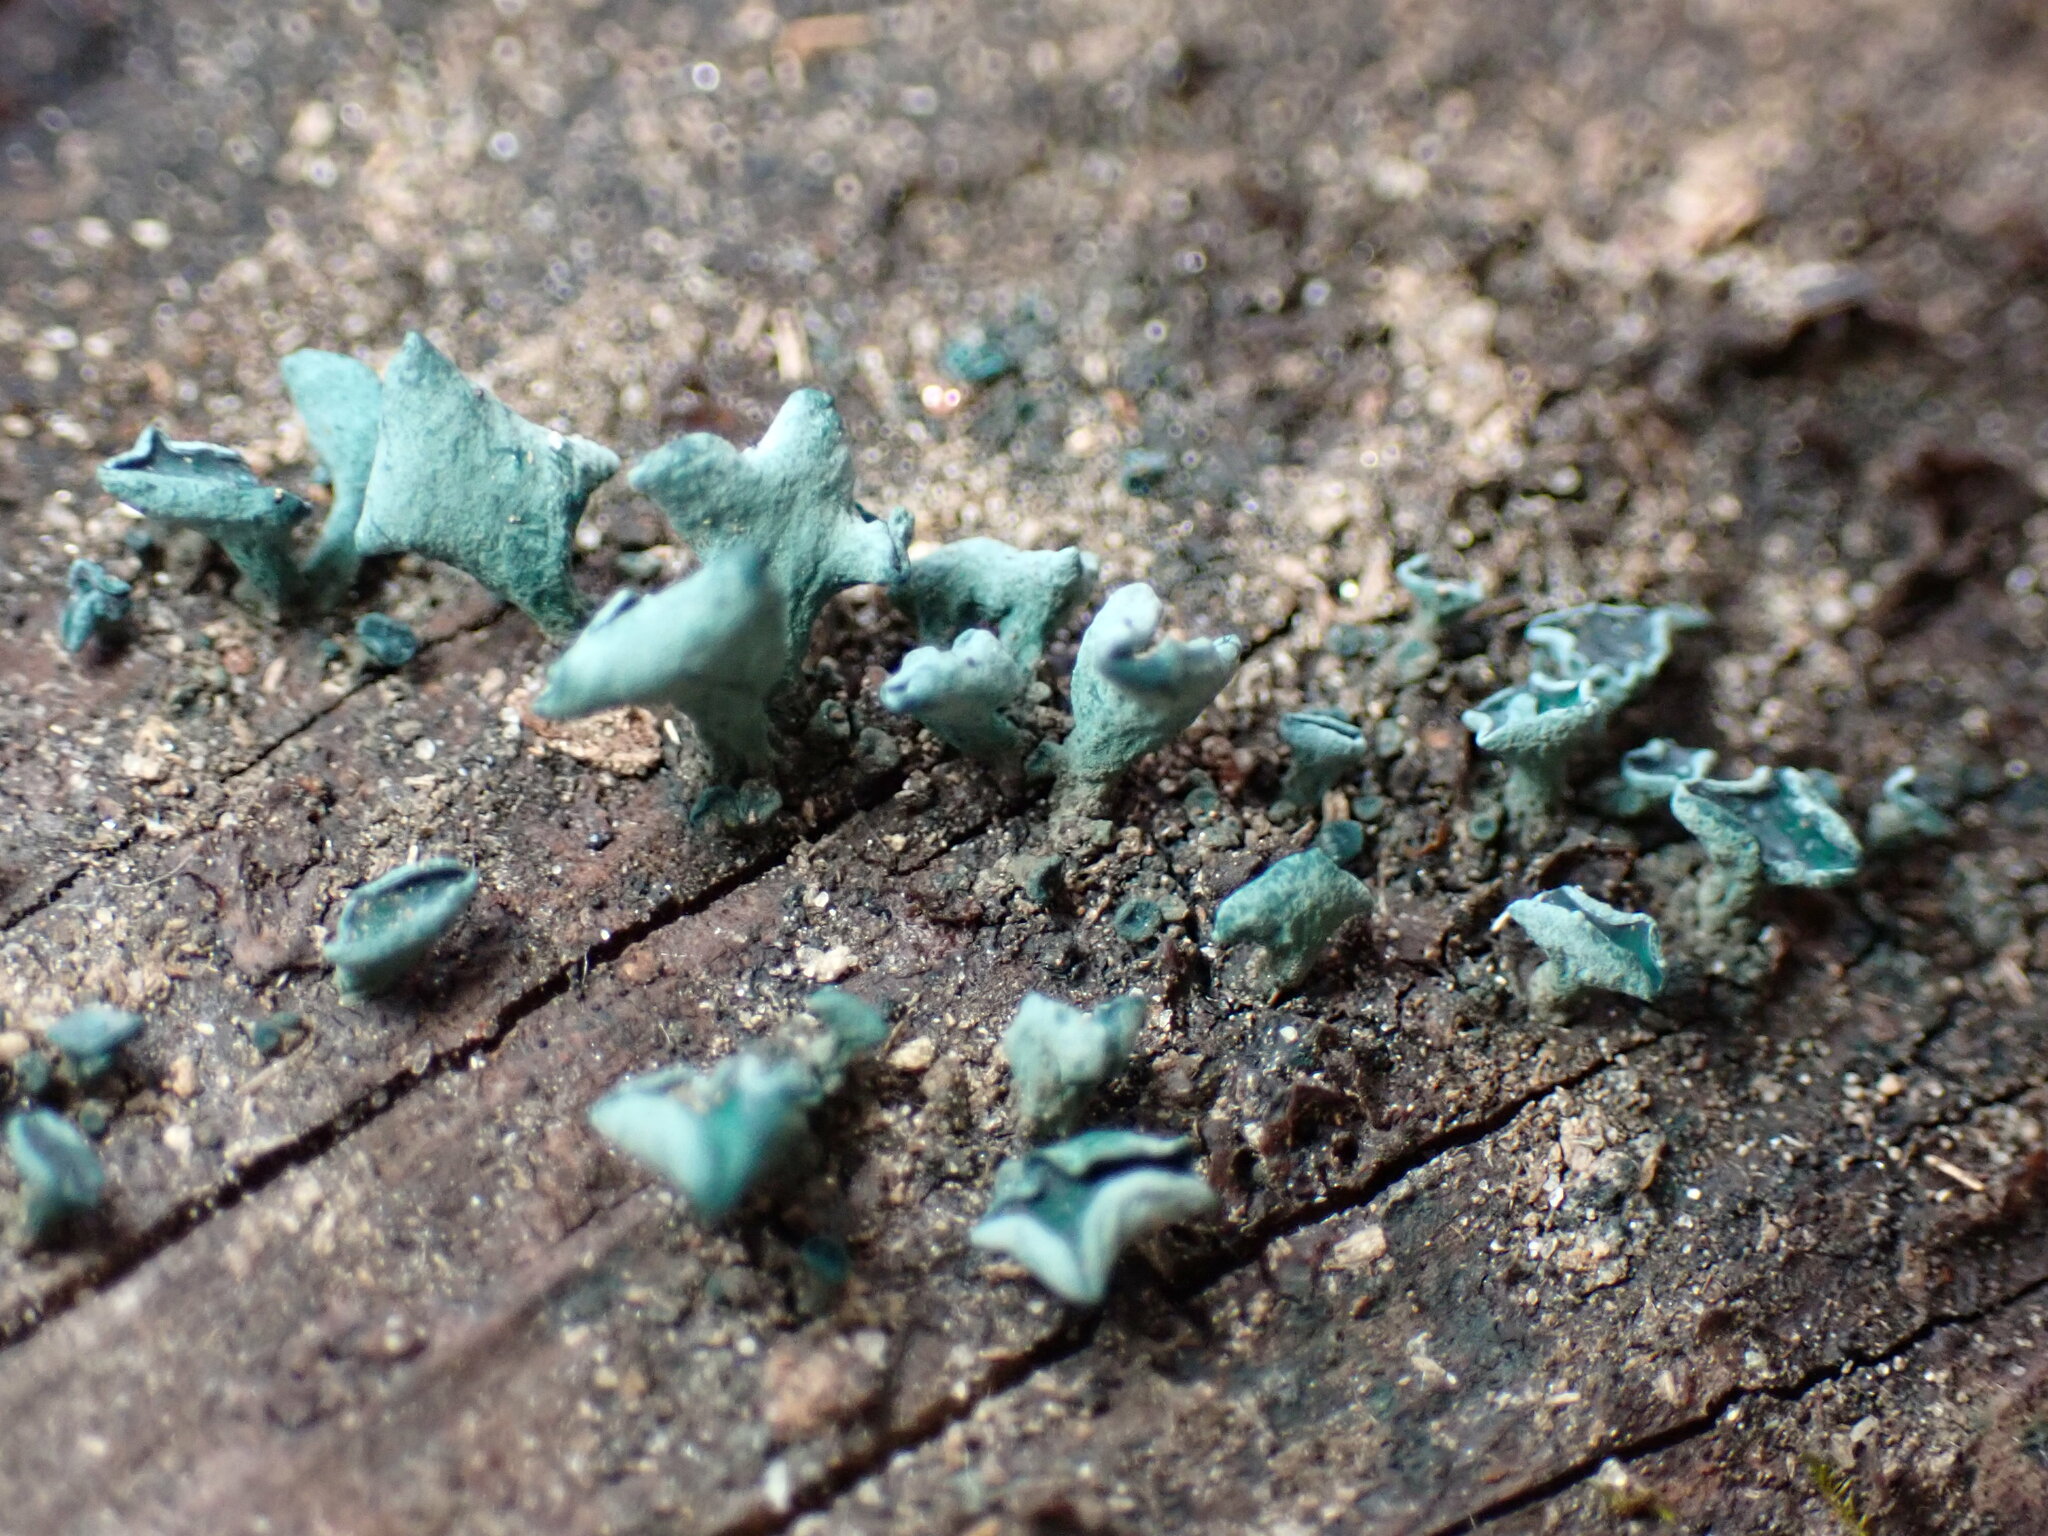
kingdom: Fungi
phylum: Ascomycota
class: Leotiomycetes
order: Helotiales
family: Chlorociboriaceae
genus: Chlorociboria
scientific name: Chlorociboria aeruginascens
